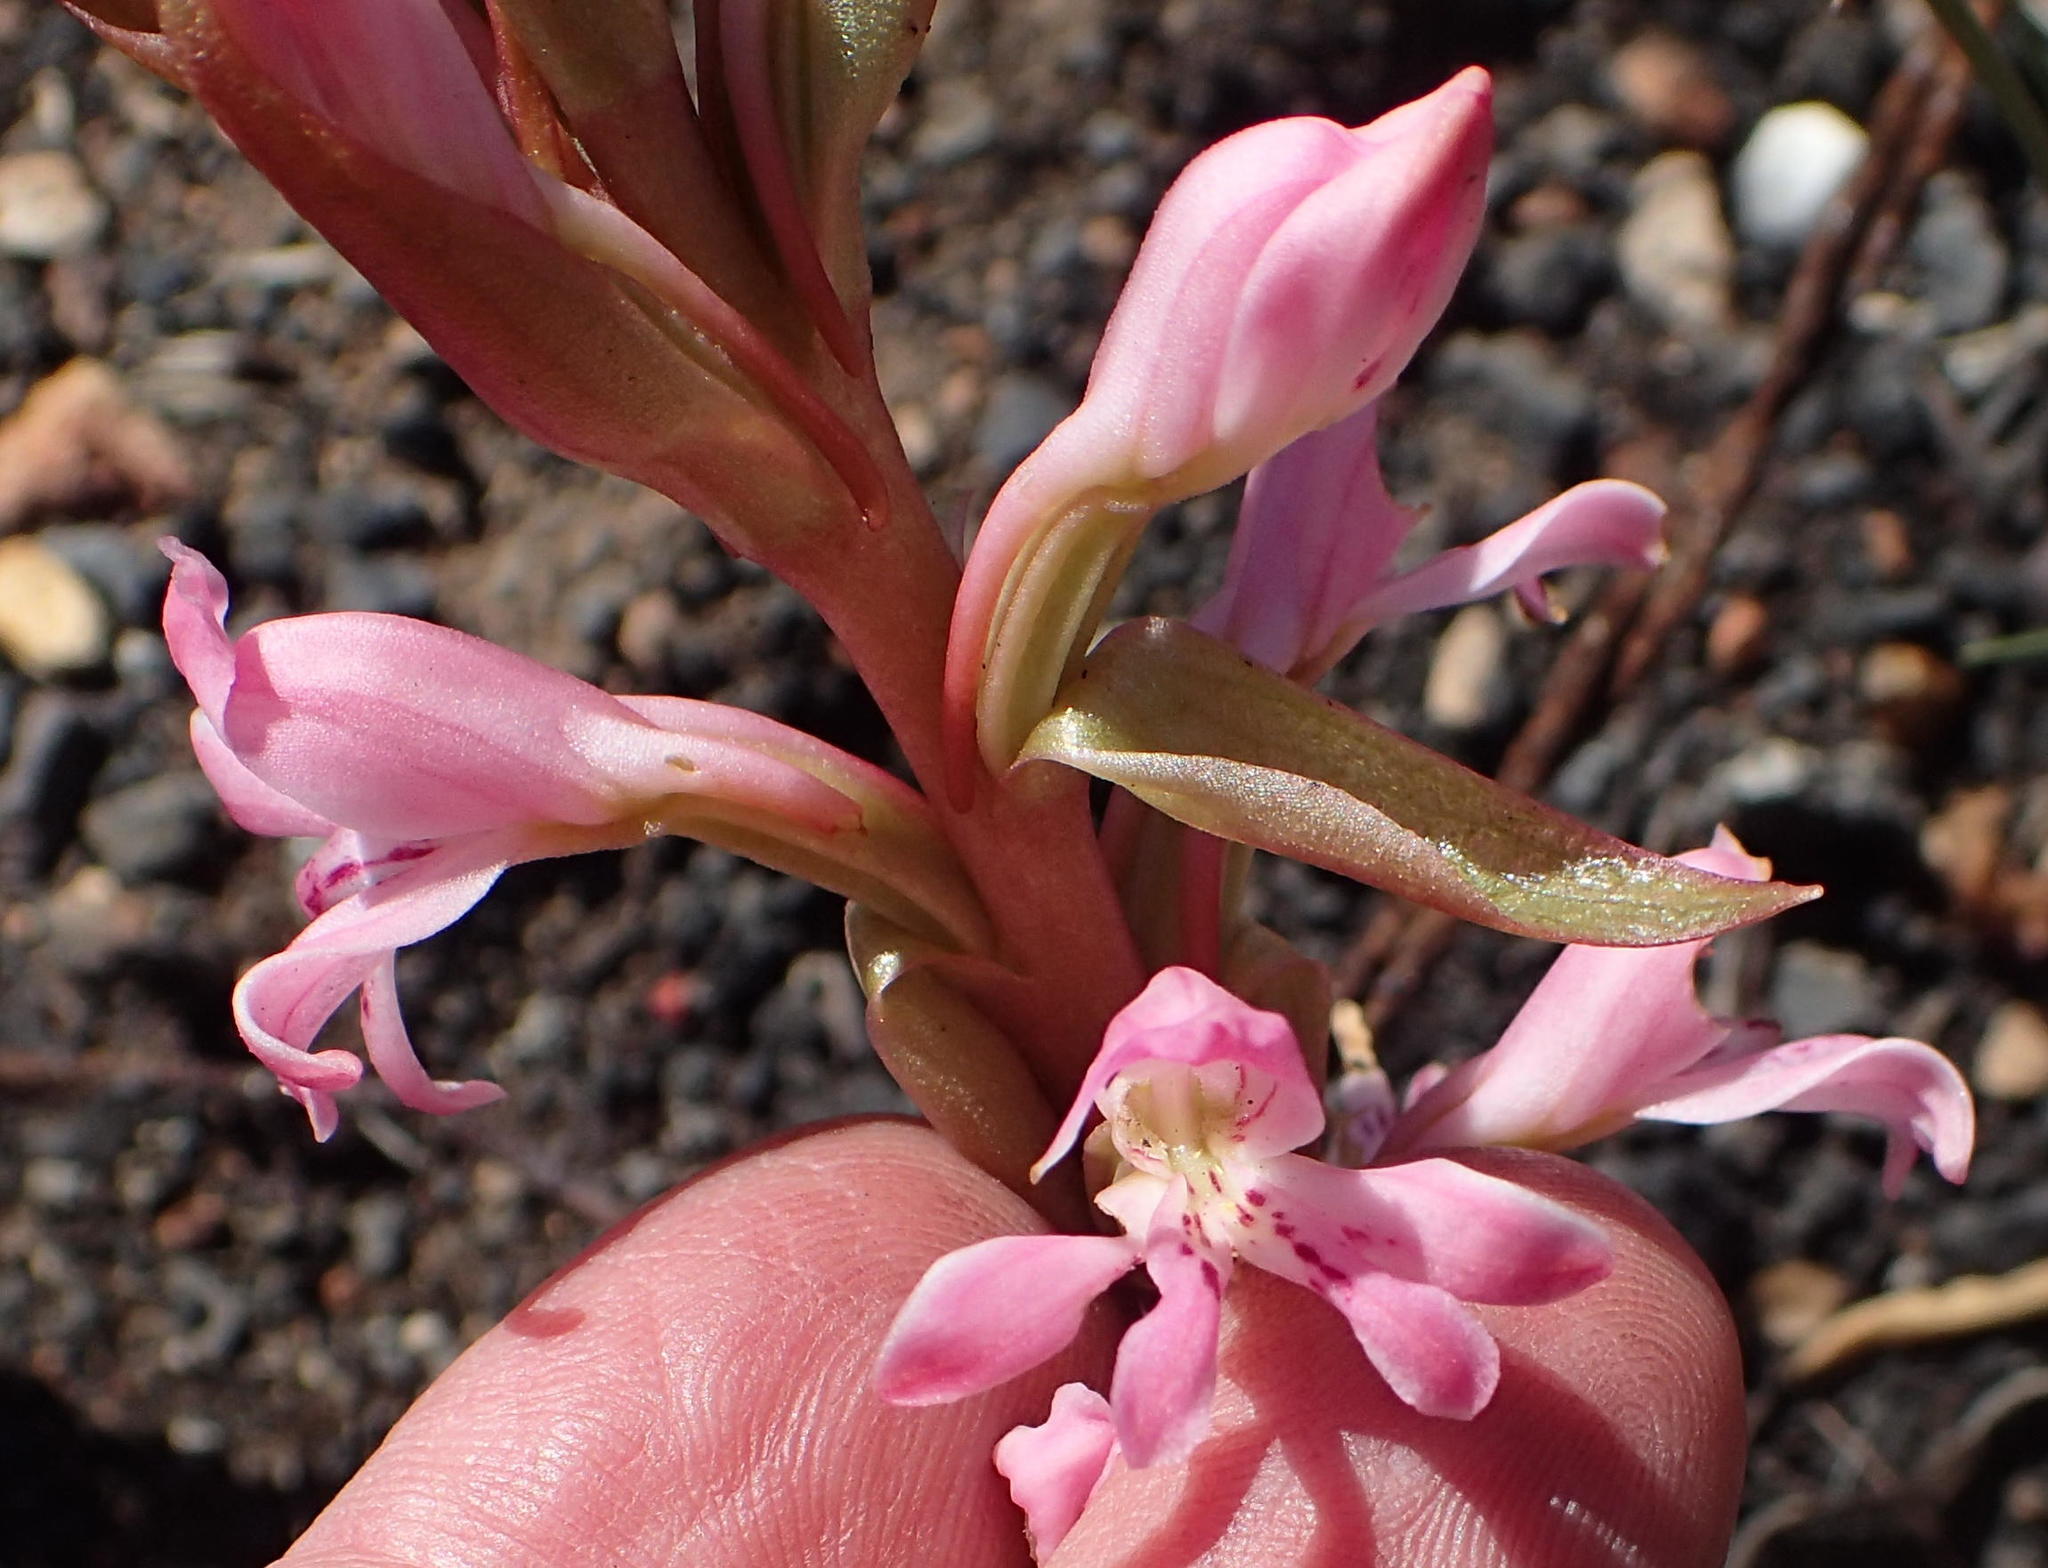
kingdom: Plantae
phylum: Tracheophyta
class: Liliopsida
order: Asparagales
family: Orchidaceae
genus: Satyrium
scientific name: Satyrium erectum
